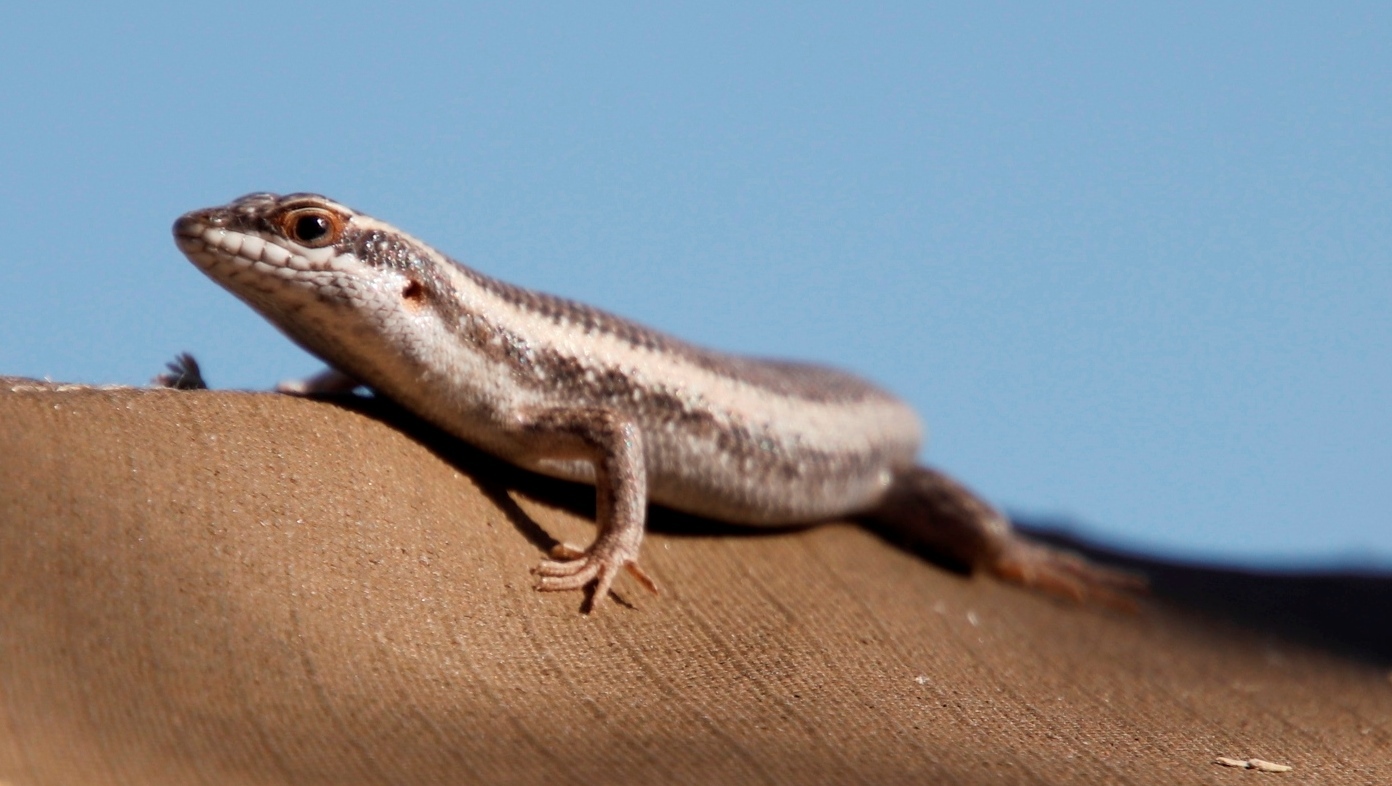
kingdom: Animalia
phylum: Chordata
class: Squamata
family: Scincidae
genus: Trachylepis
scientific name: Trachylepis spilogaster
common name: Kalahari tree skink
